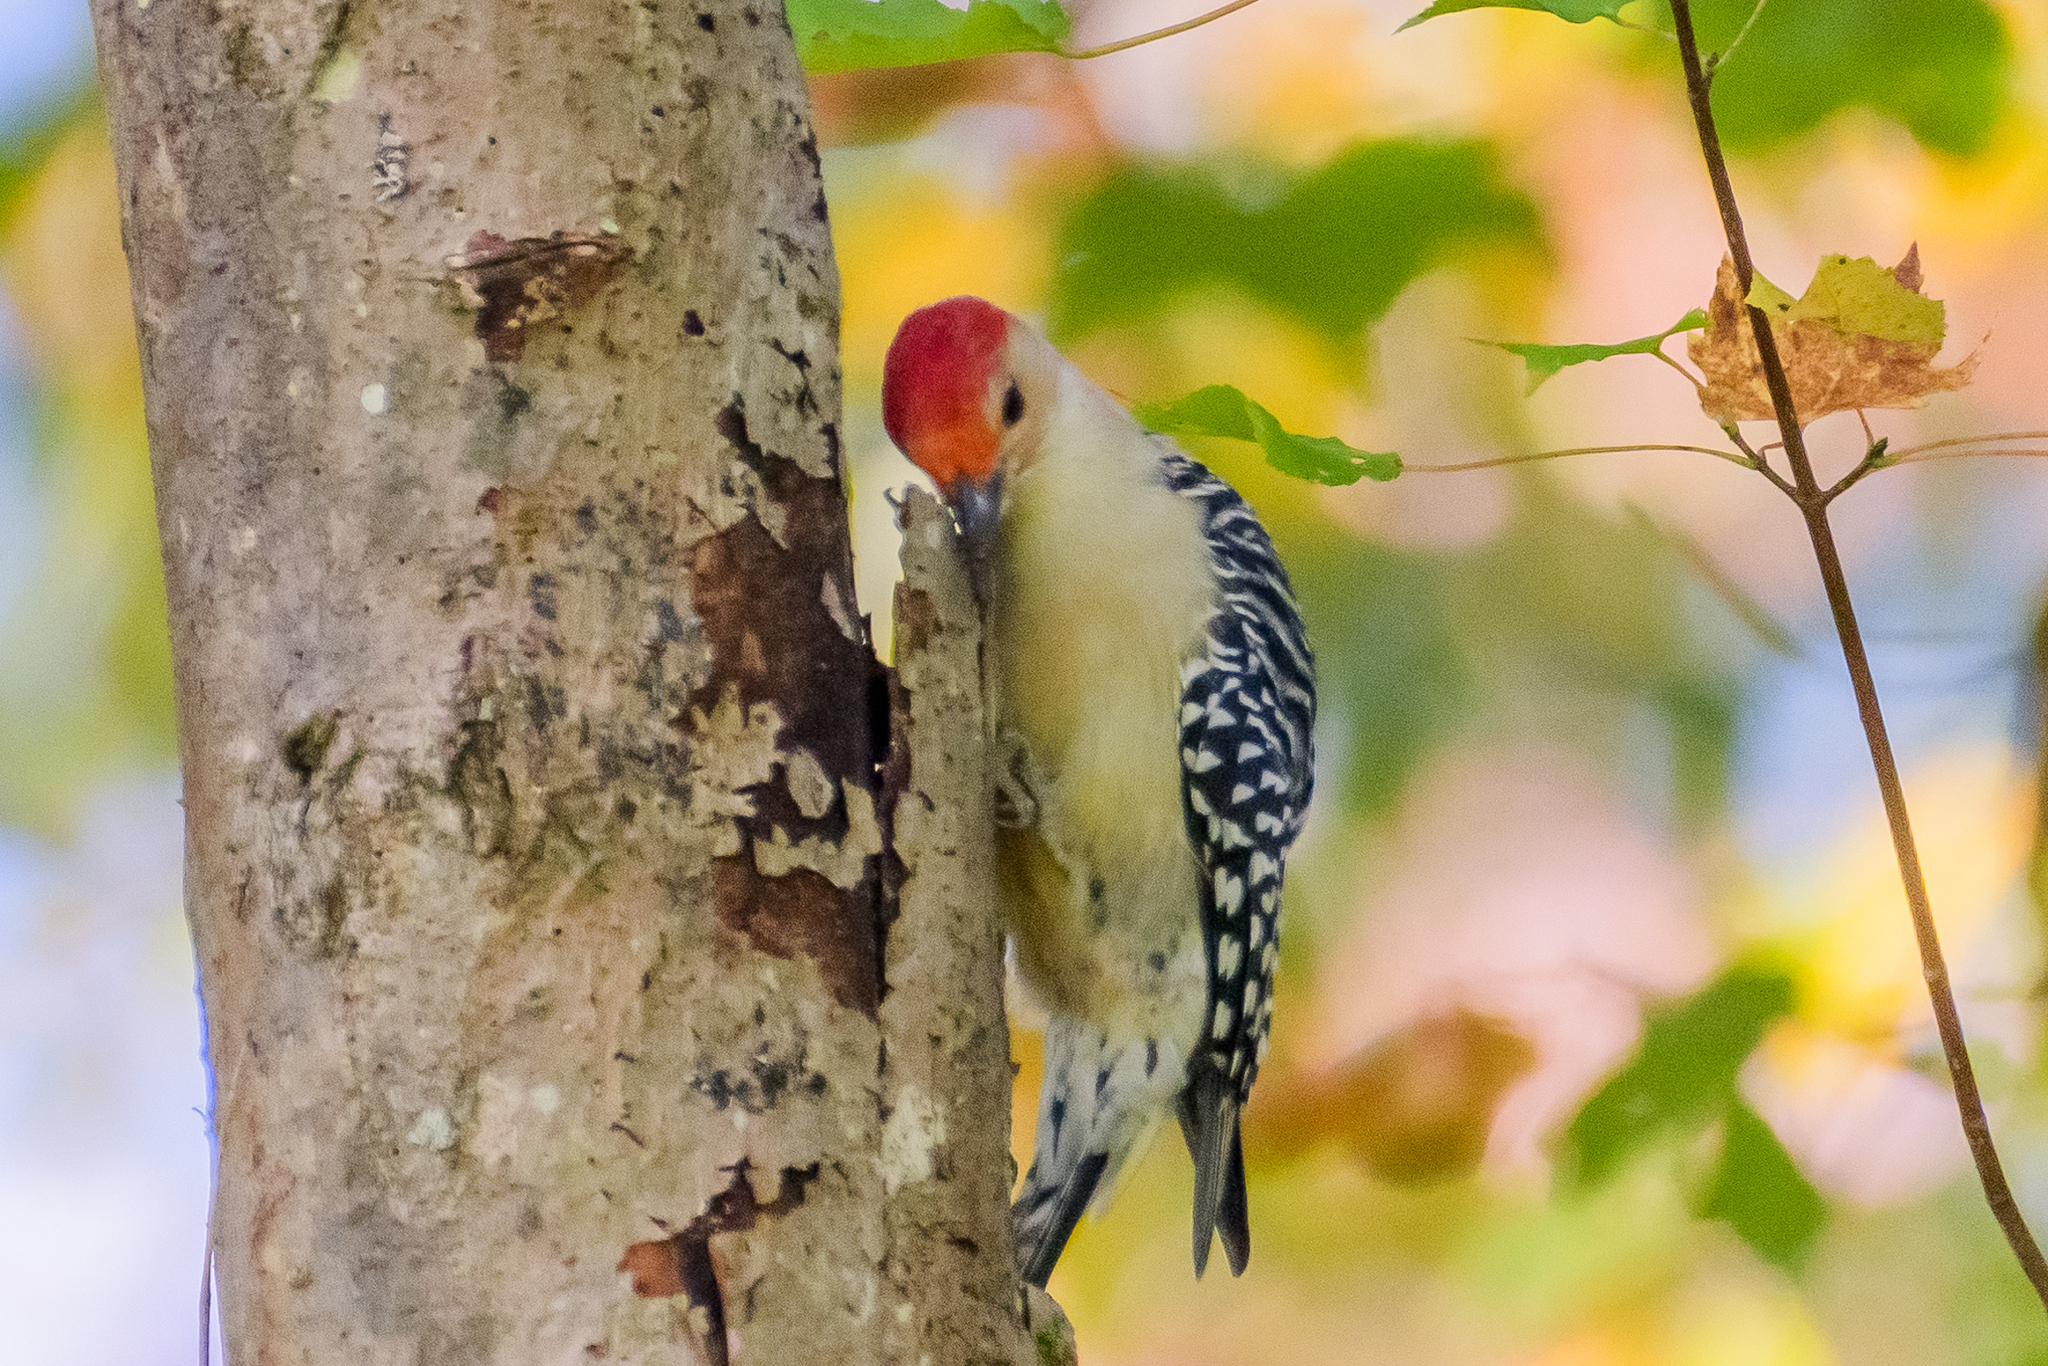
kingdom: Animalia
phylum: Chordata
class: Aves
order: Piciformes
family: Picidae
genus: Melanerpes
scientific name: Melanerpes carolinus
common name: Red-bellied woodpecker
